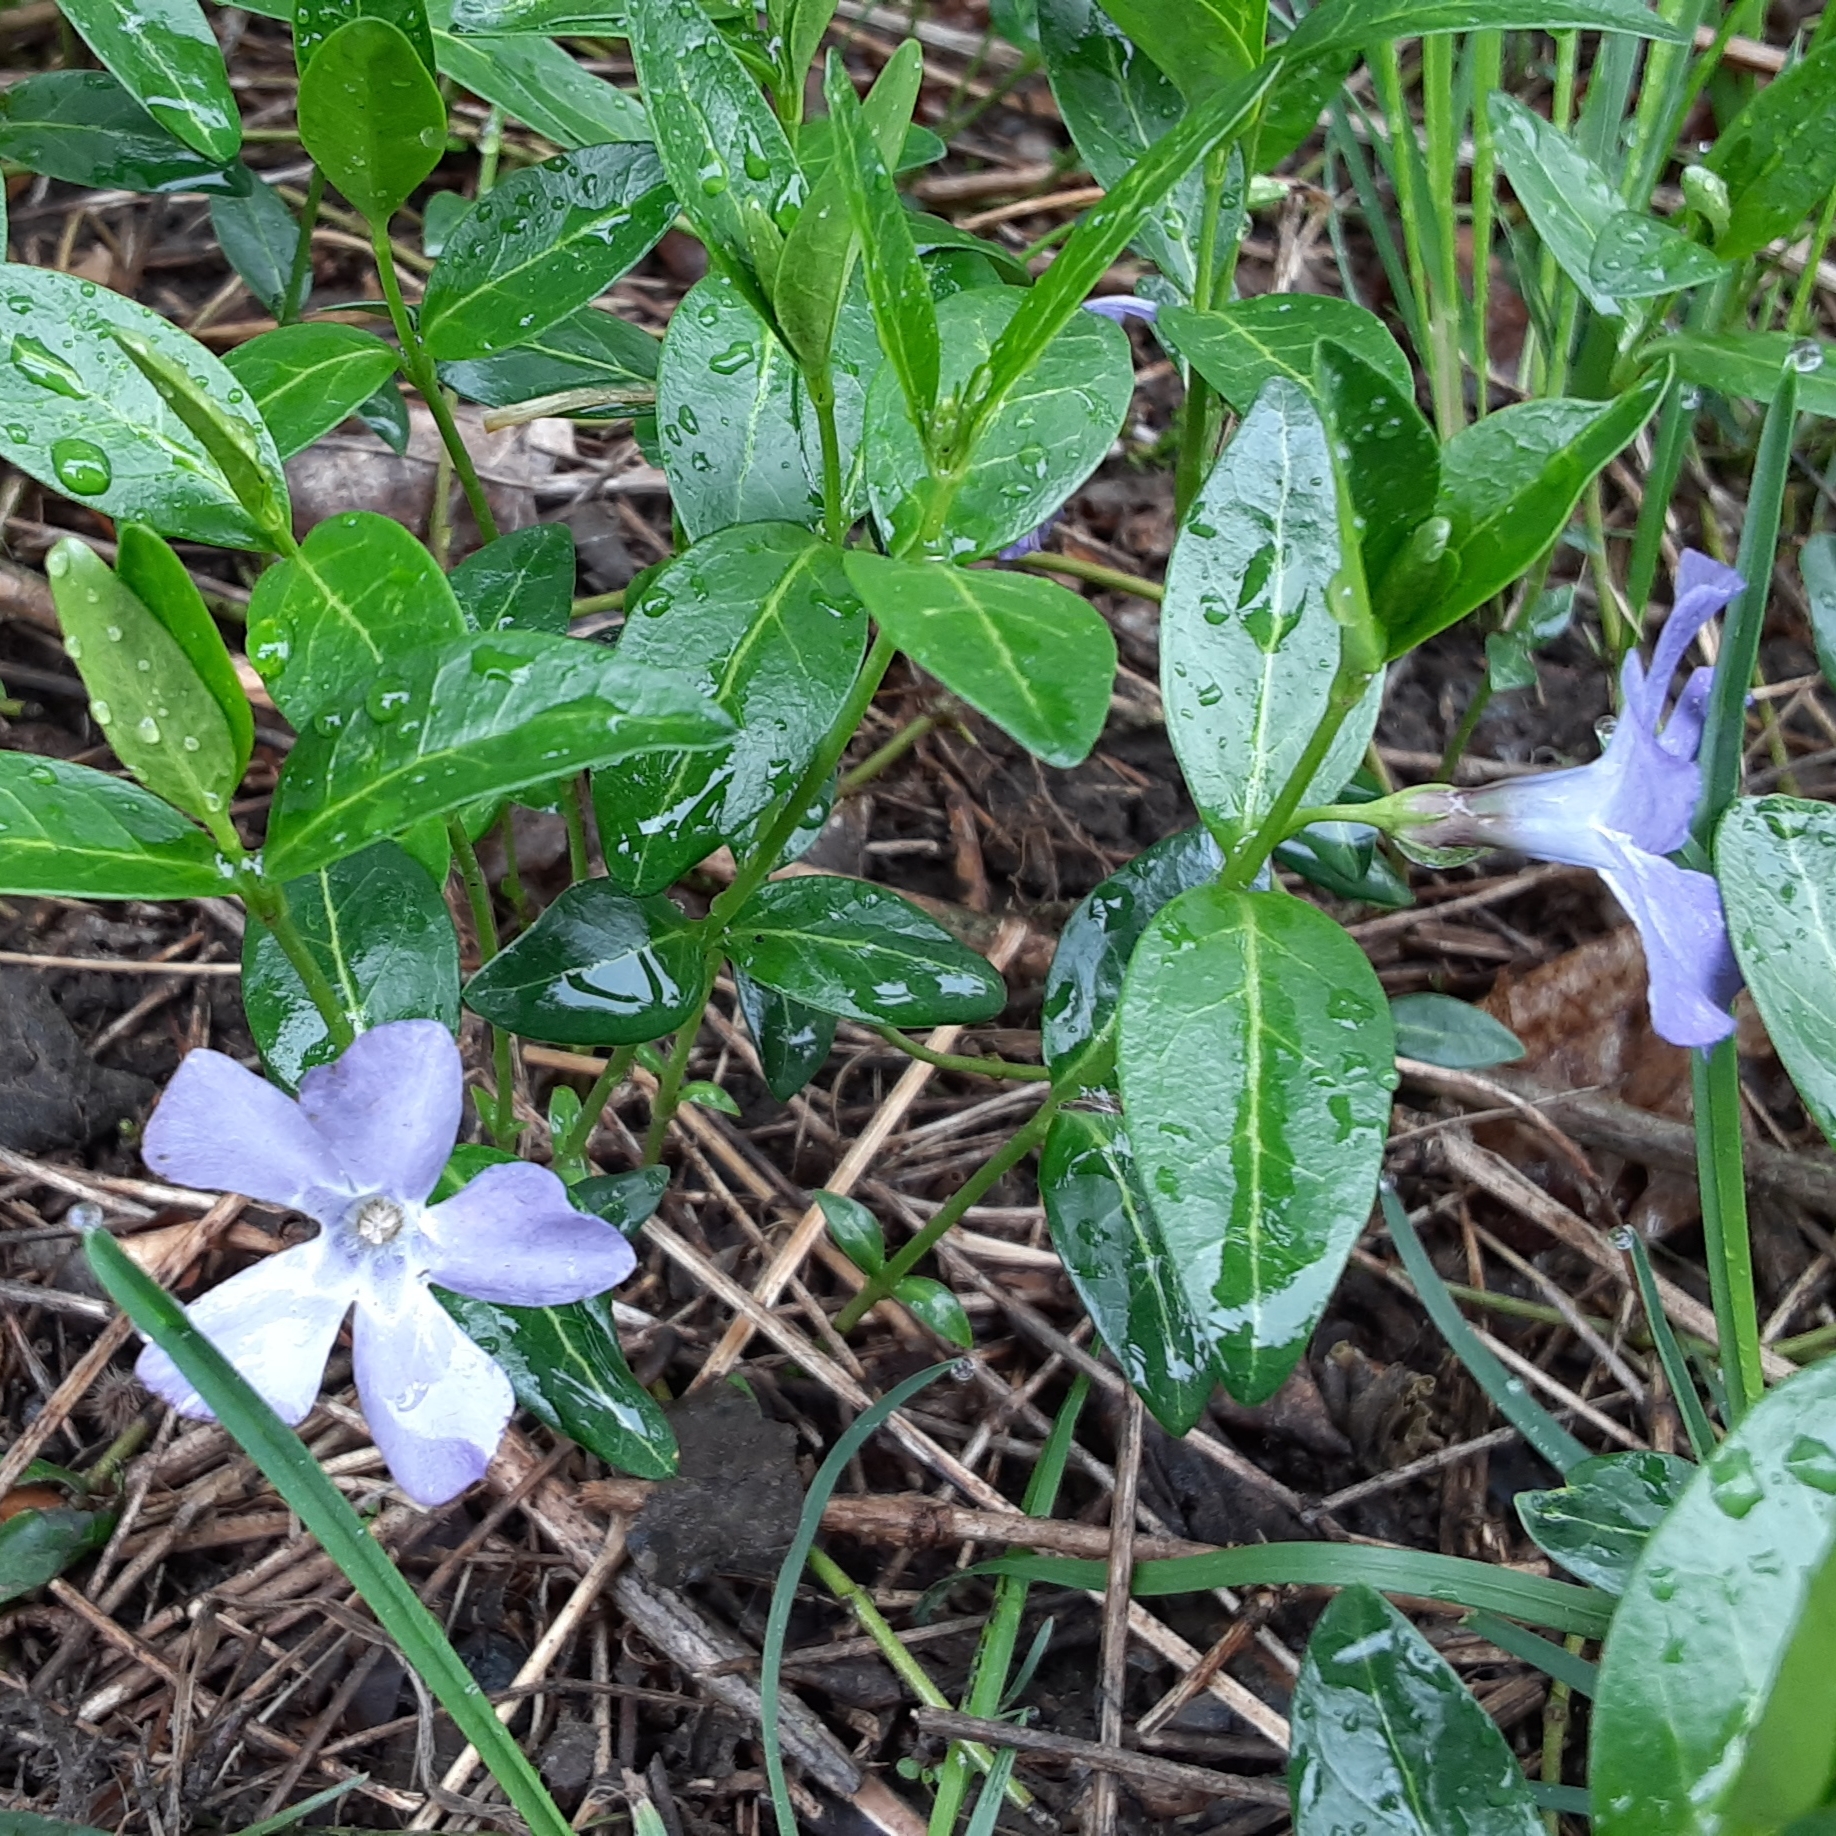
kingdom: Plantae
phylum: Tracheophyta
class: Magnoliopsida
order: Gentianales
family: Apocynaceae
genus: Vinca
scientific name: Vinca minor
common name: Lesser periwinkle
